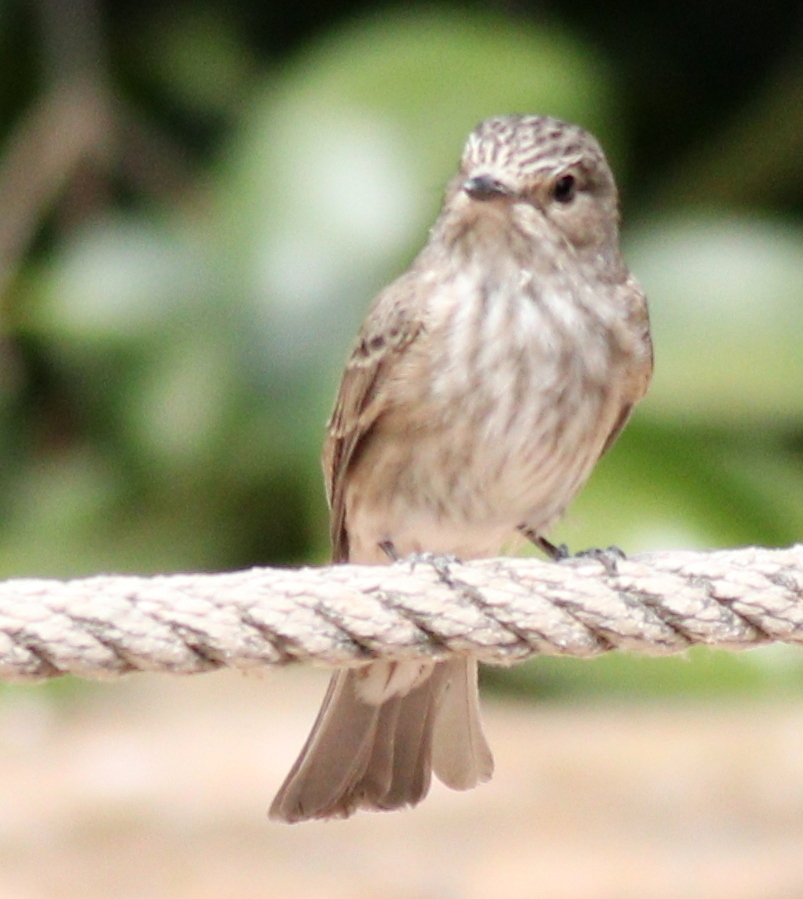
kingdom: Animalia
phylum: Chordata
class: Aves
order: Passeriformes
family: Muscicapidae
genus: Muscicapa
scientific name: Muscicapa striata
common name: Spotted flycatcher
